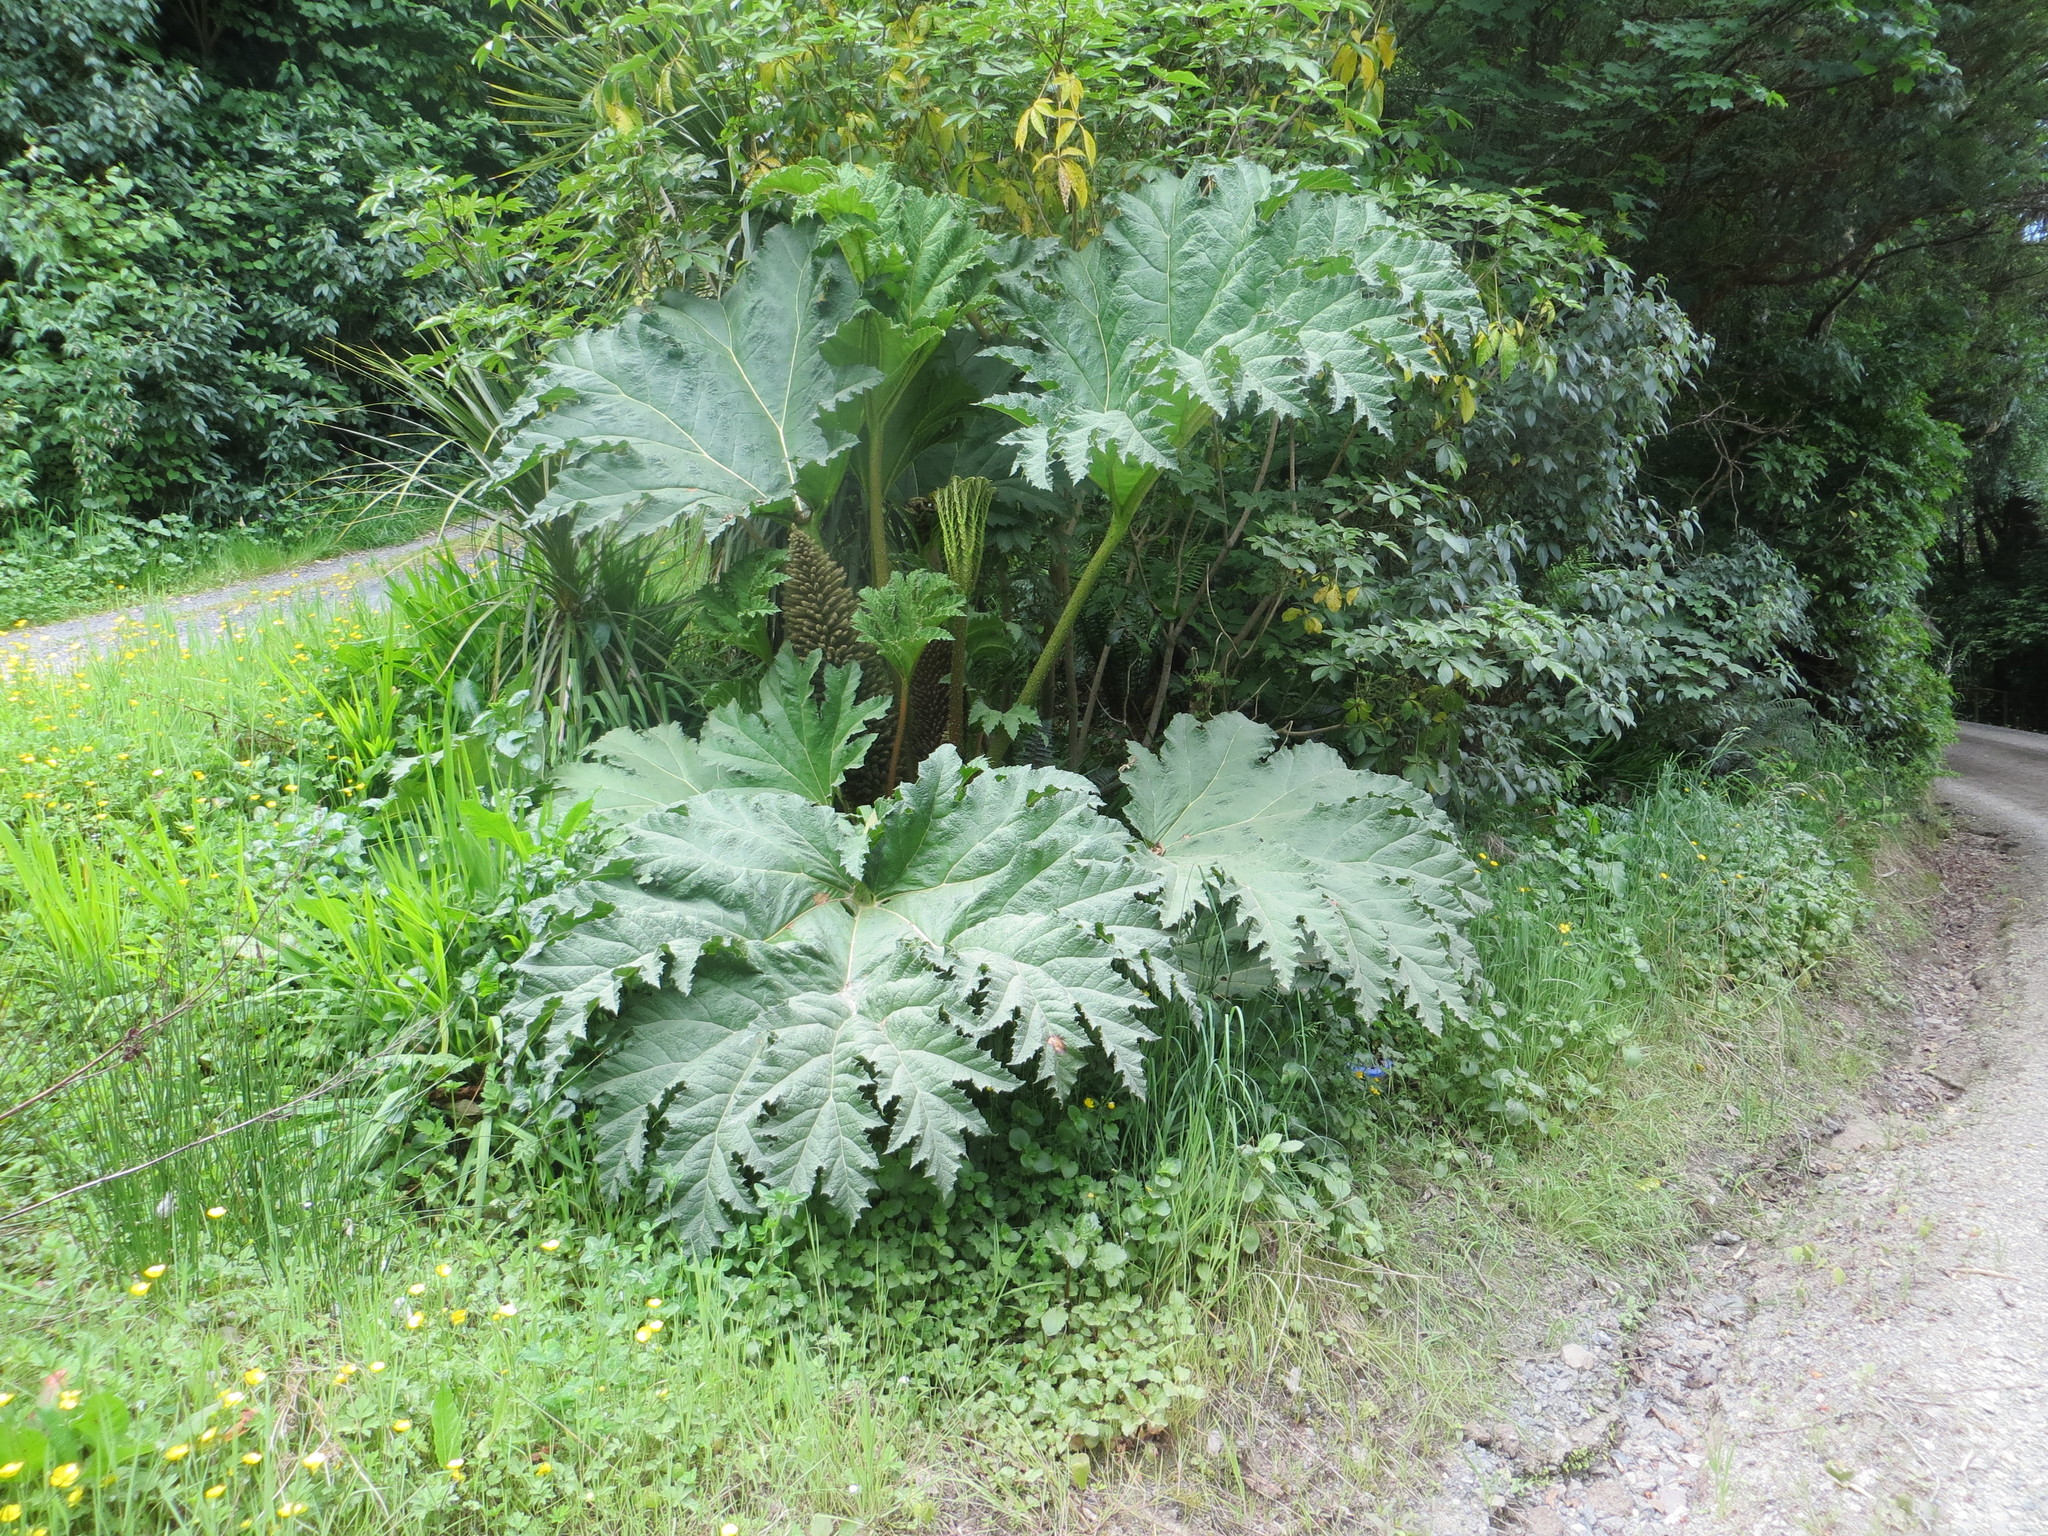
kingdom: Plantae
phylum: Tracheophyta
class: Magnoliopsida
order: Gunnerales
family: Gunneraceae
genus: Gunnera
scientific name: Gunnera tinctoria
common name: Giant-rhubarb
